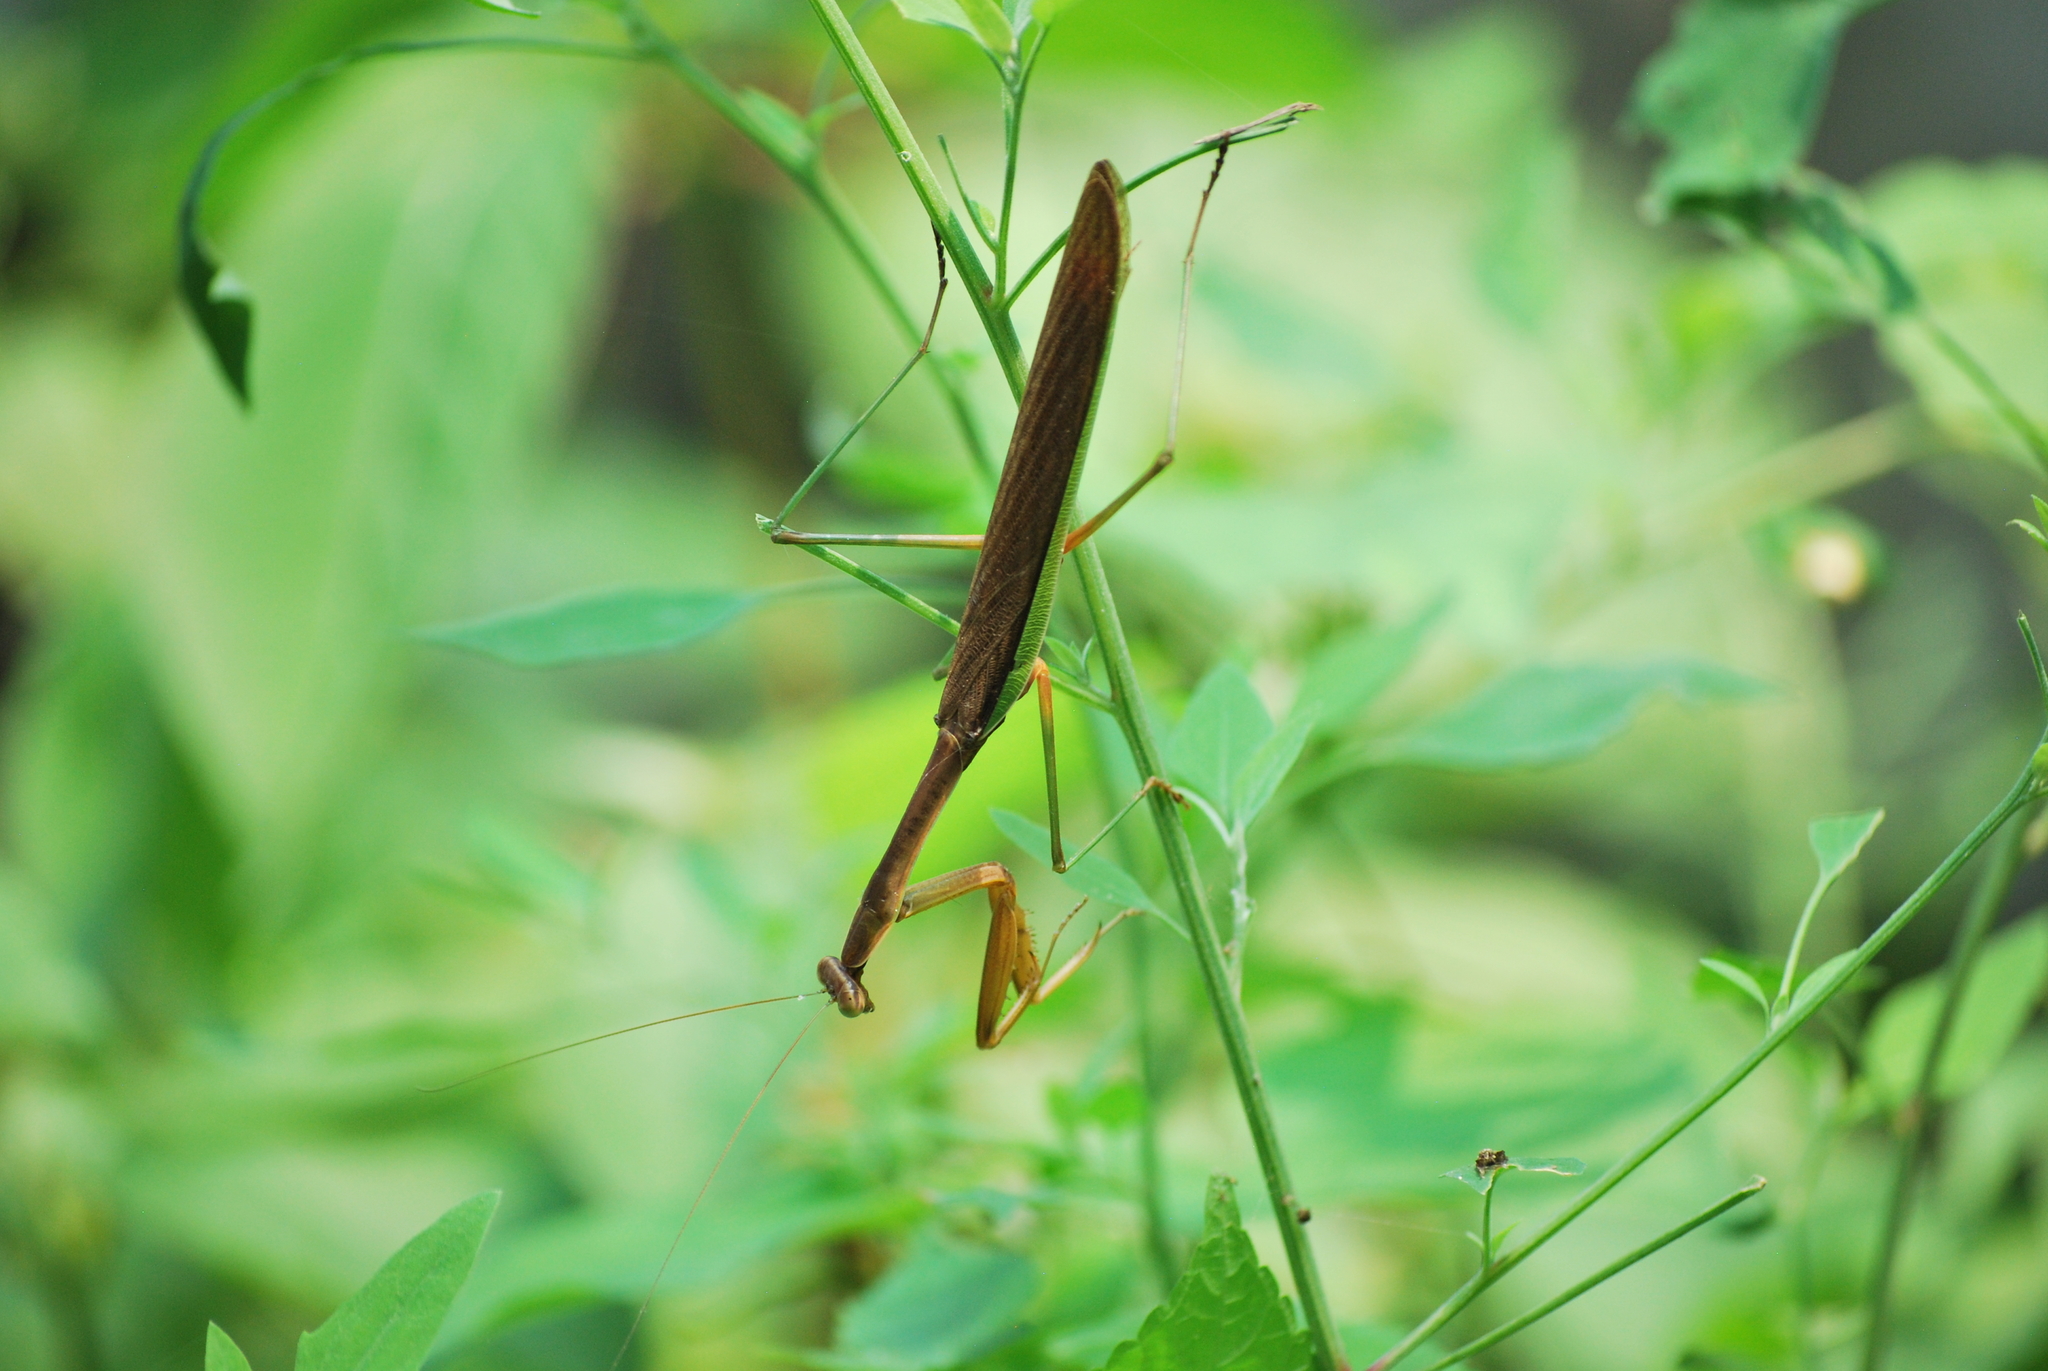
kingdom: Animalia
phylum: Arthropoda
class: Insecta
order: Mantodea
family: Mantidae
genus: Tenodera
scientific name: Tenodera sinensis
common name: Chinese mantis
